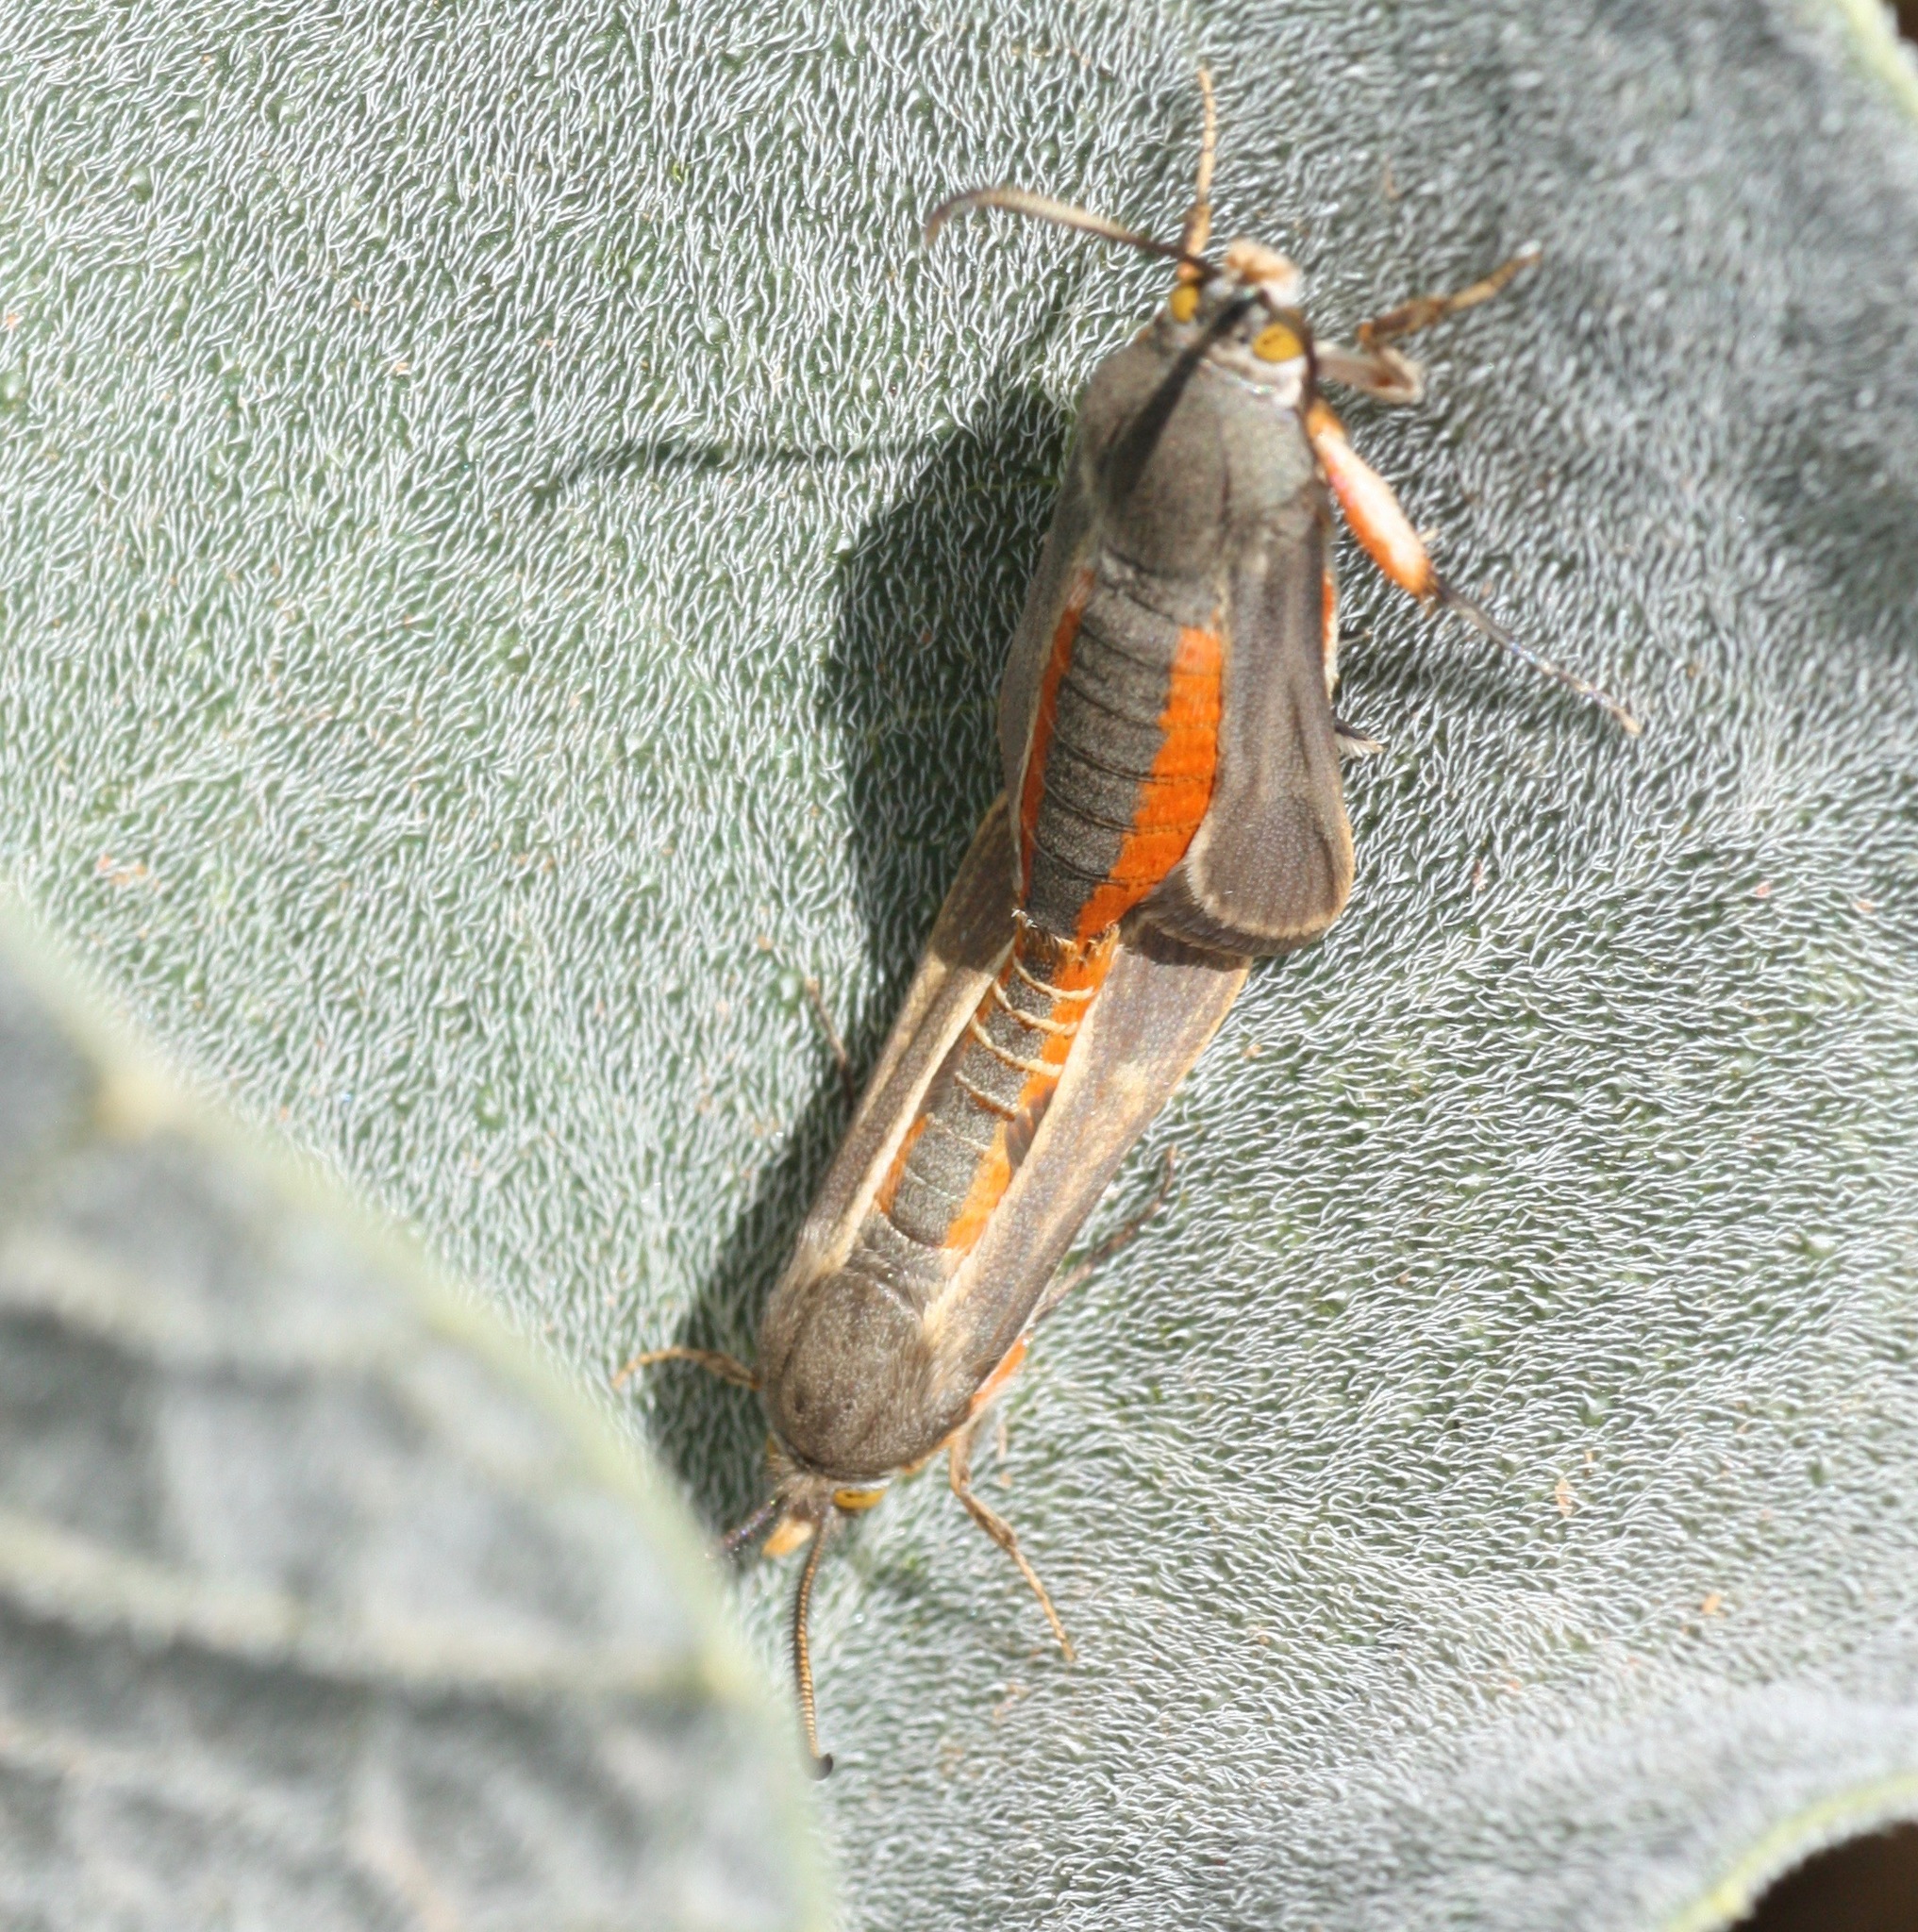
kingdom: Animalia
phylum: Arthropoda
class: Insecta
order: Lepidoptera
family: Sesiidae
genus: Eichlinia
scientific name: Eichlinia snowii
